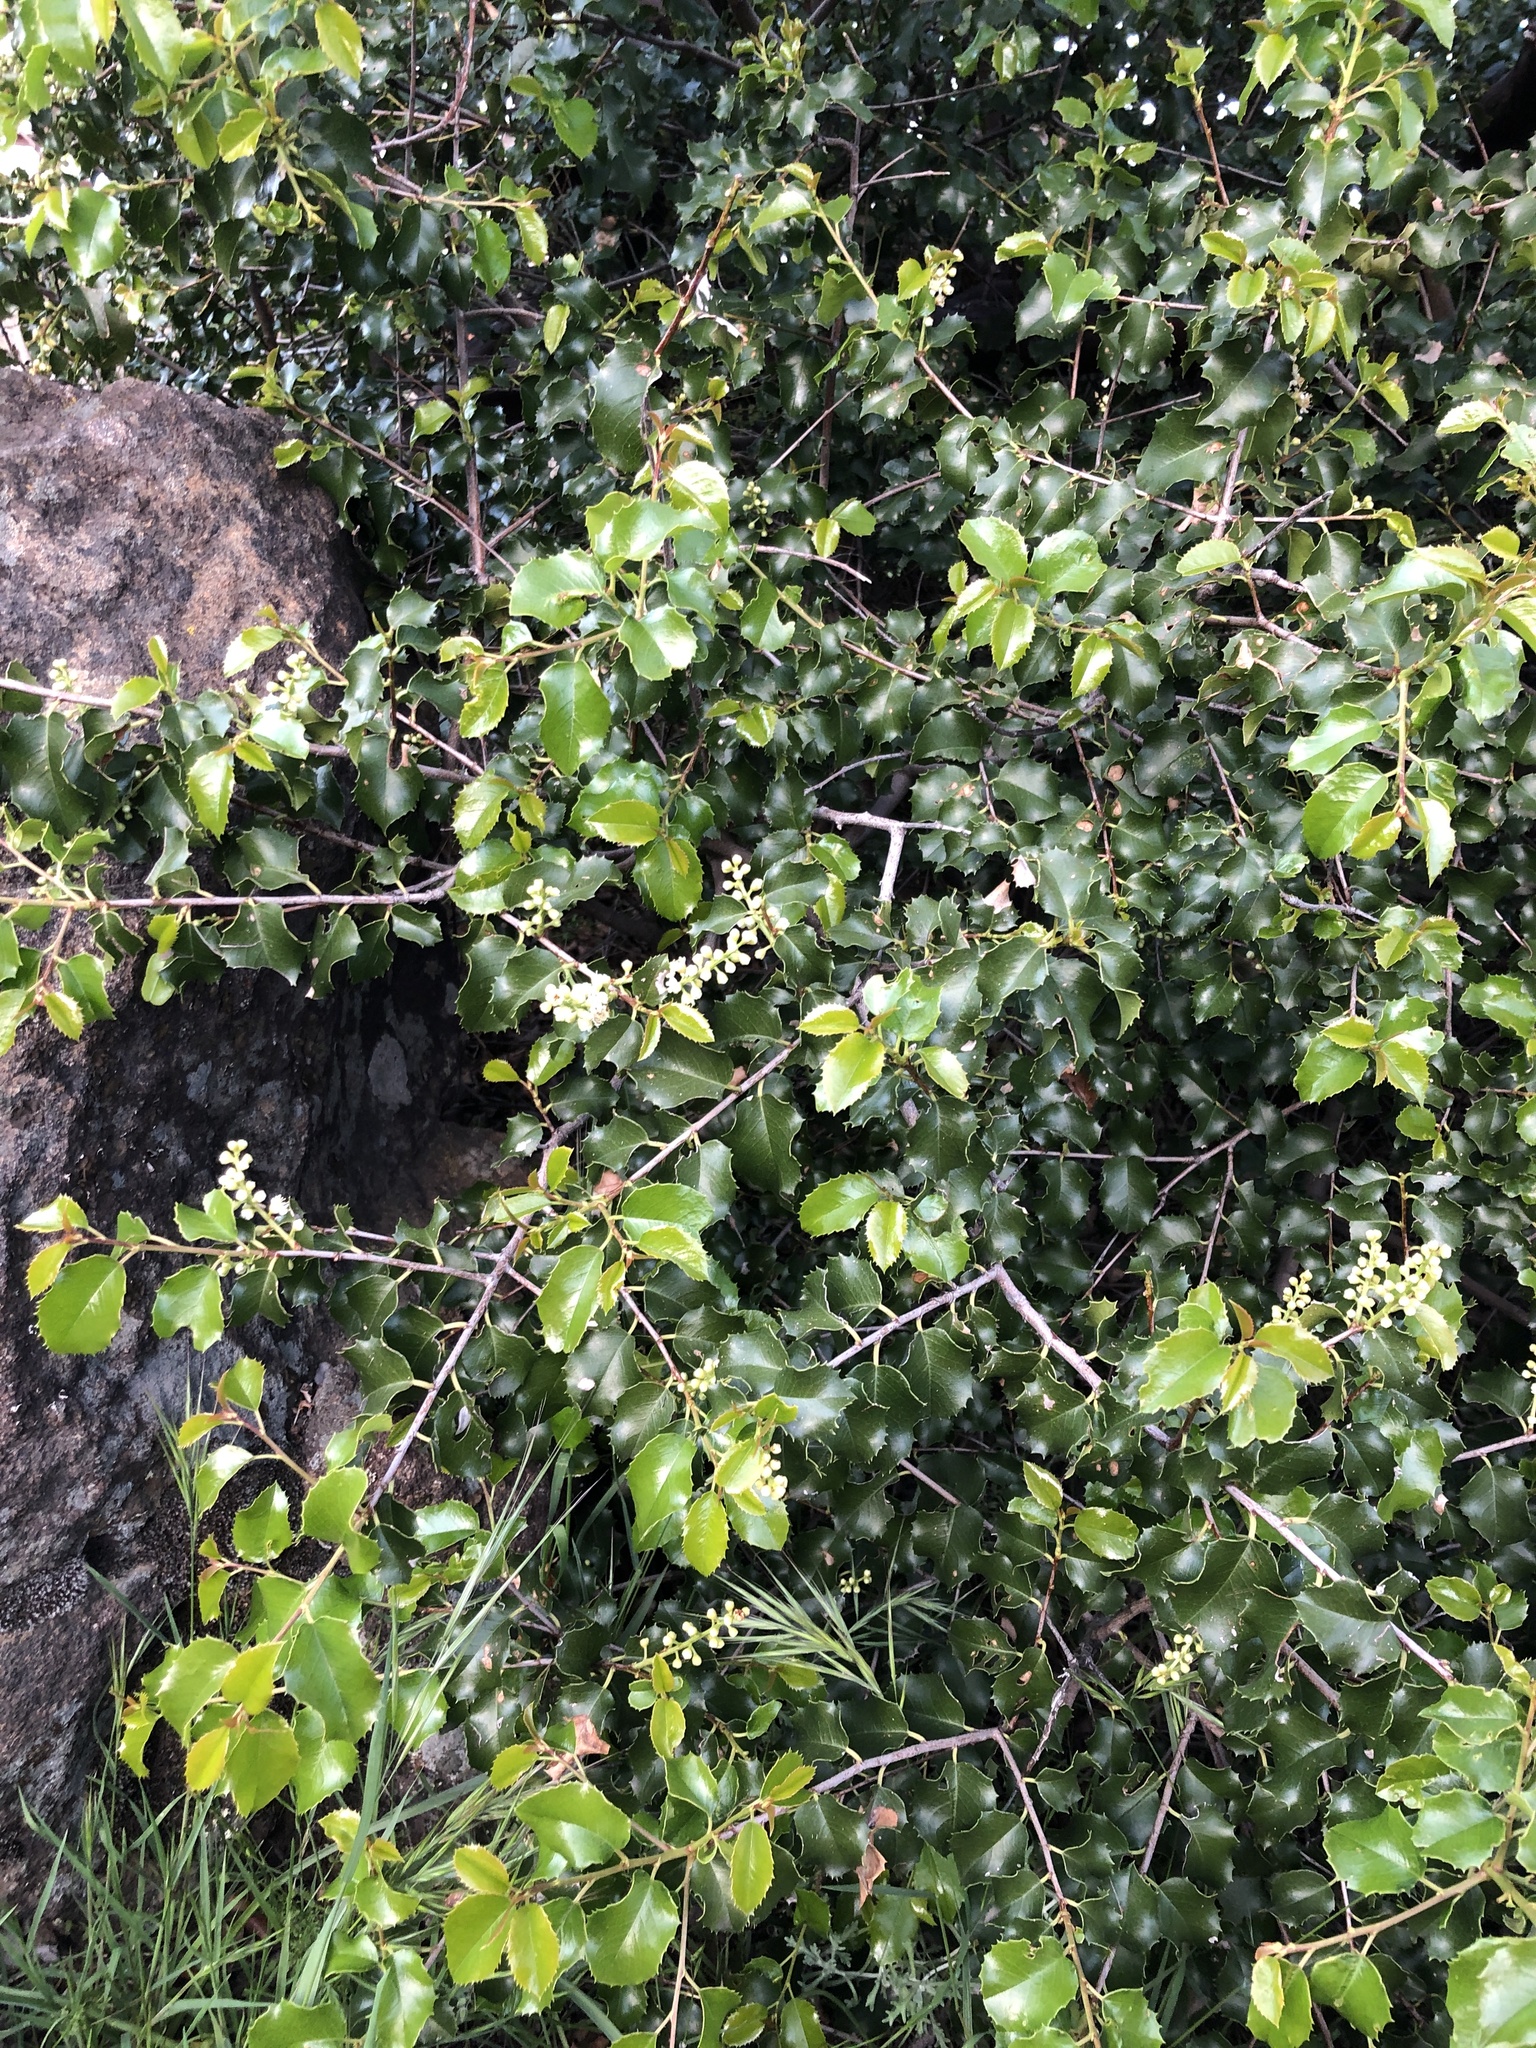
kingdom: Plantae
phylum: Tracheophyta
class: Magnoliopsida
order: Rosales
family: Rosaceae
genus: Prunus
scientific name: Prunus ilicifolia
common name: Hollyleaf cherry
